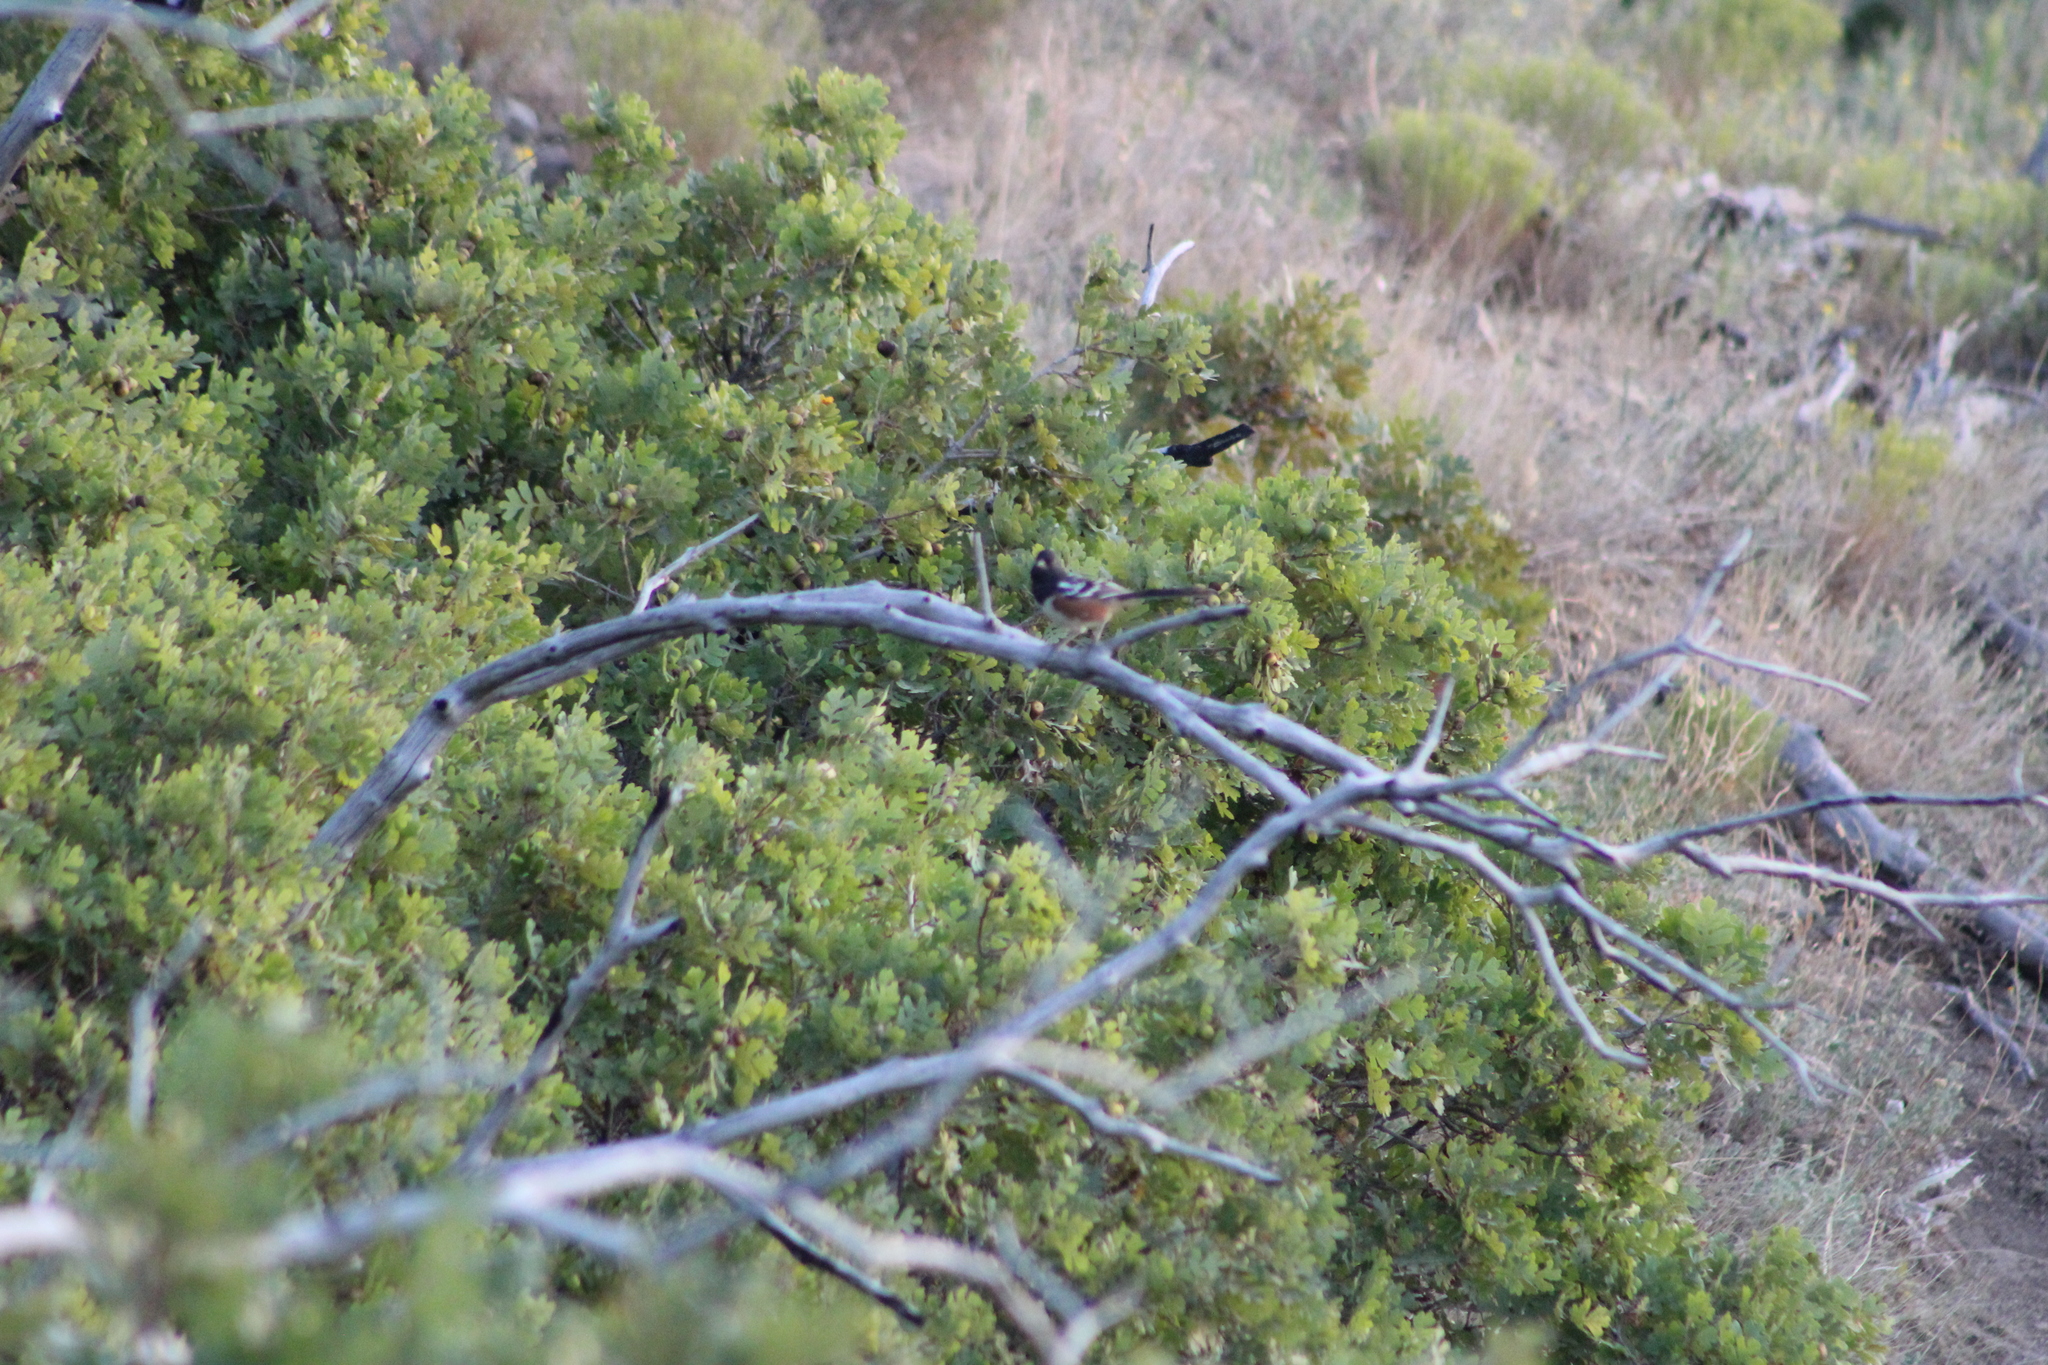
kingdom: Animalia
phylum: Chordata
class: Aves
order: Passeriformes
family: Passerellidae
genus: Pipilo
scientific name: Pipilo maculatus
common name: Spotted towhee
